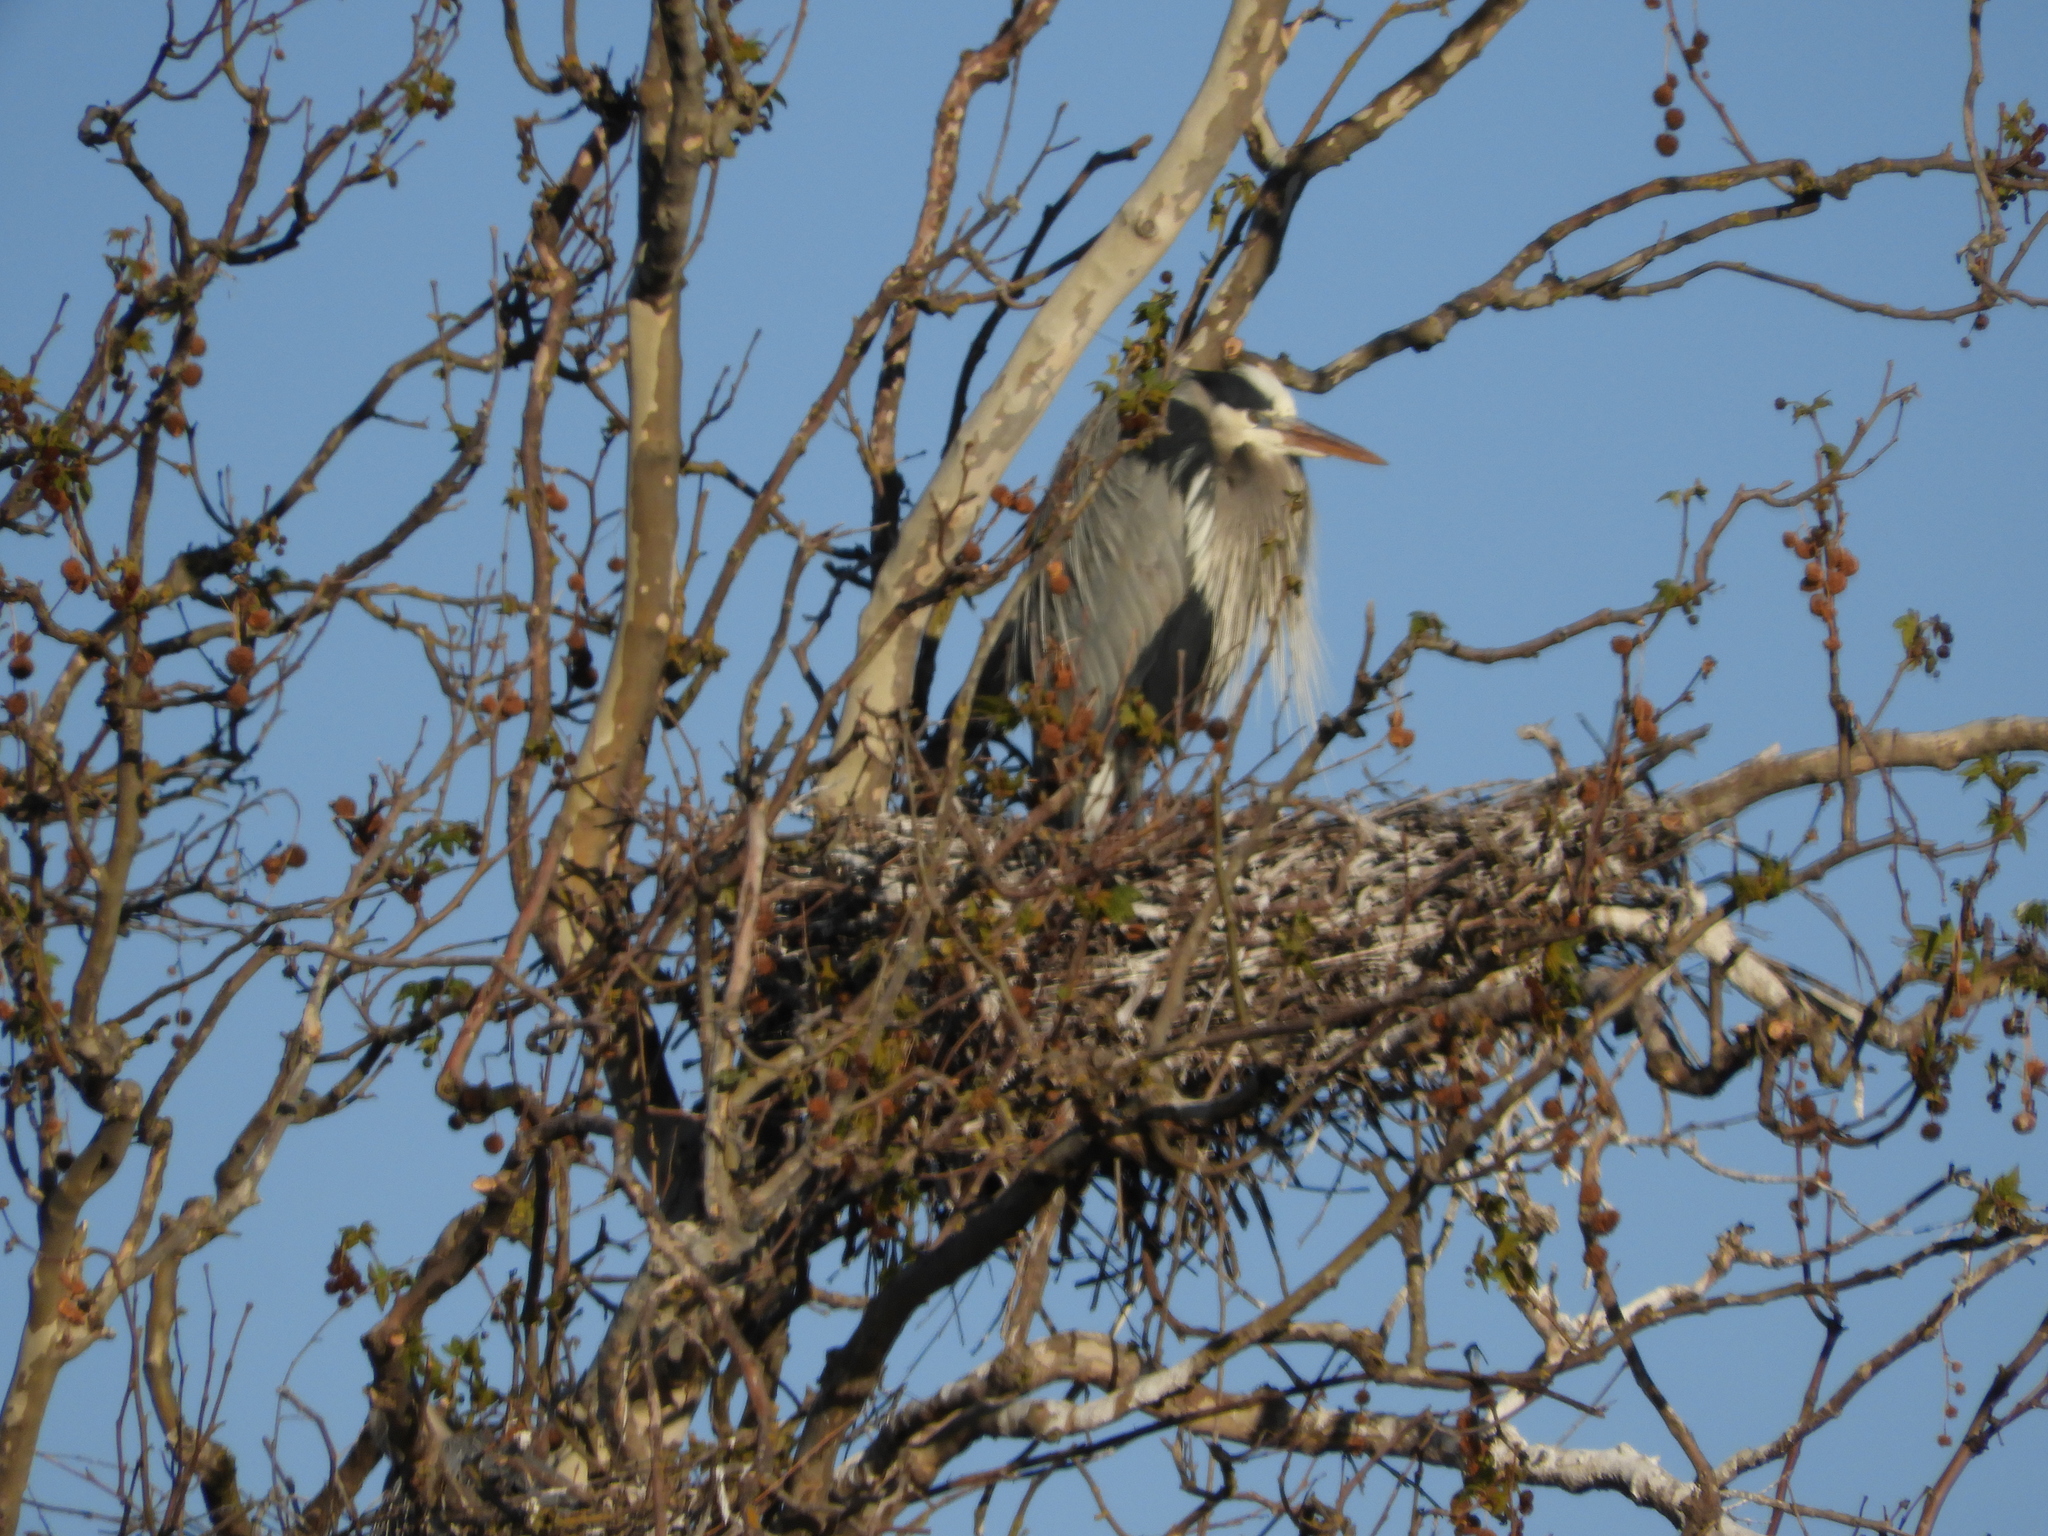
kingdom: Animalia
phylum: Chordata
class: Aves
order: Pelecaniformes
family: Ardeidae
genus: Ardea
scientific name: Ardea herodias
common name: Great blue heron
